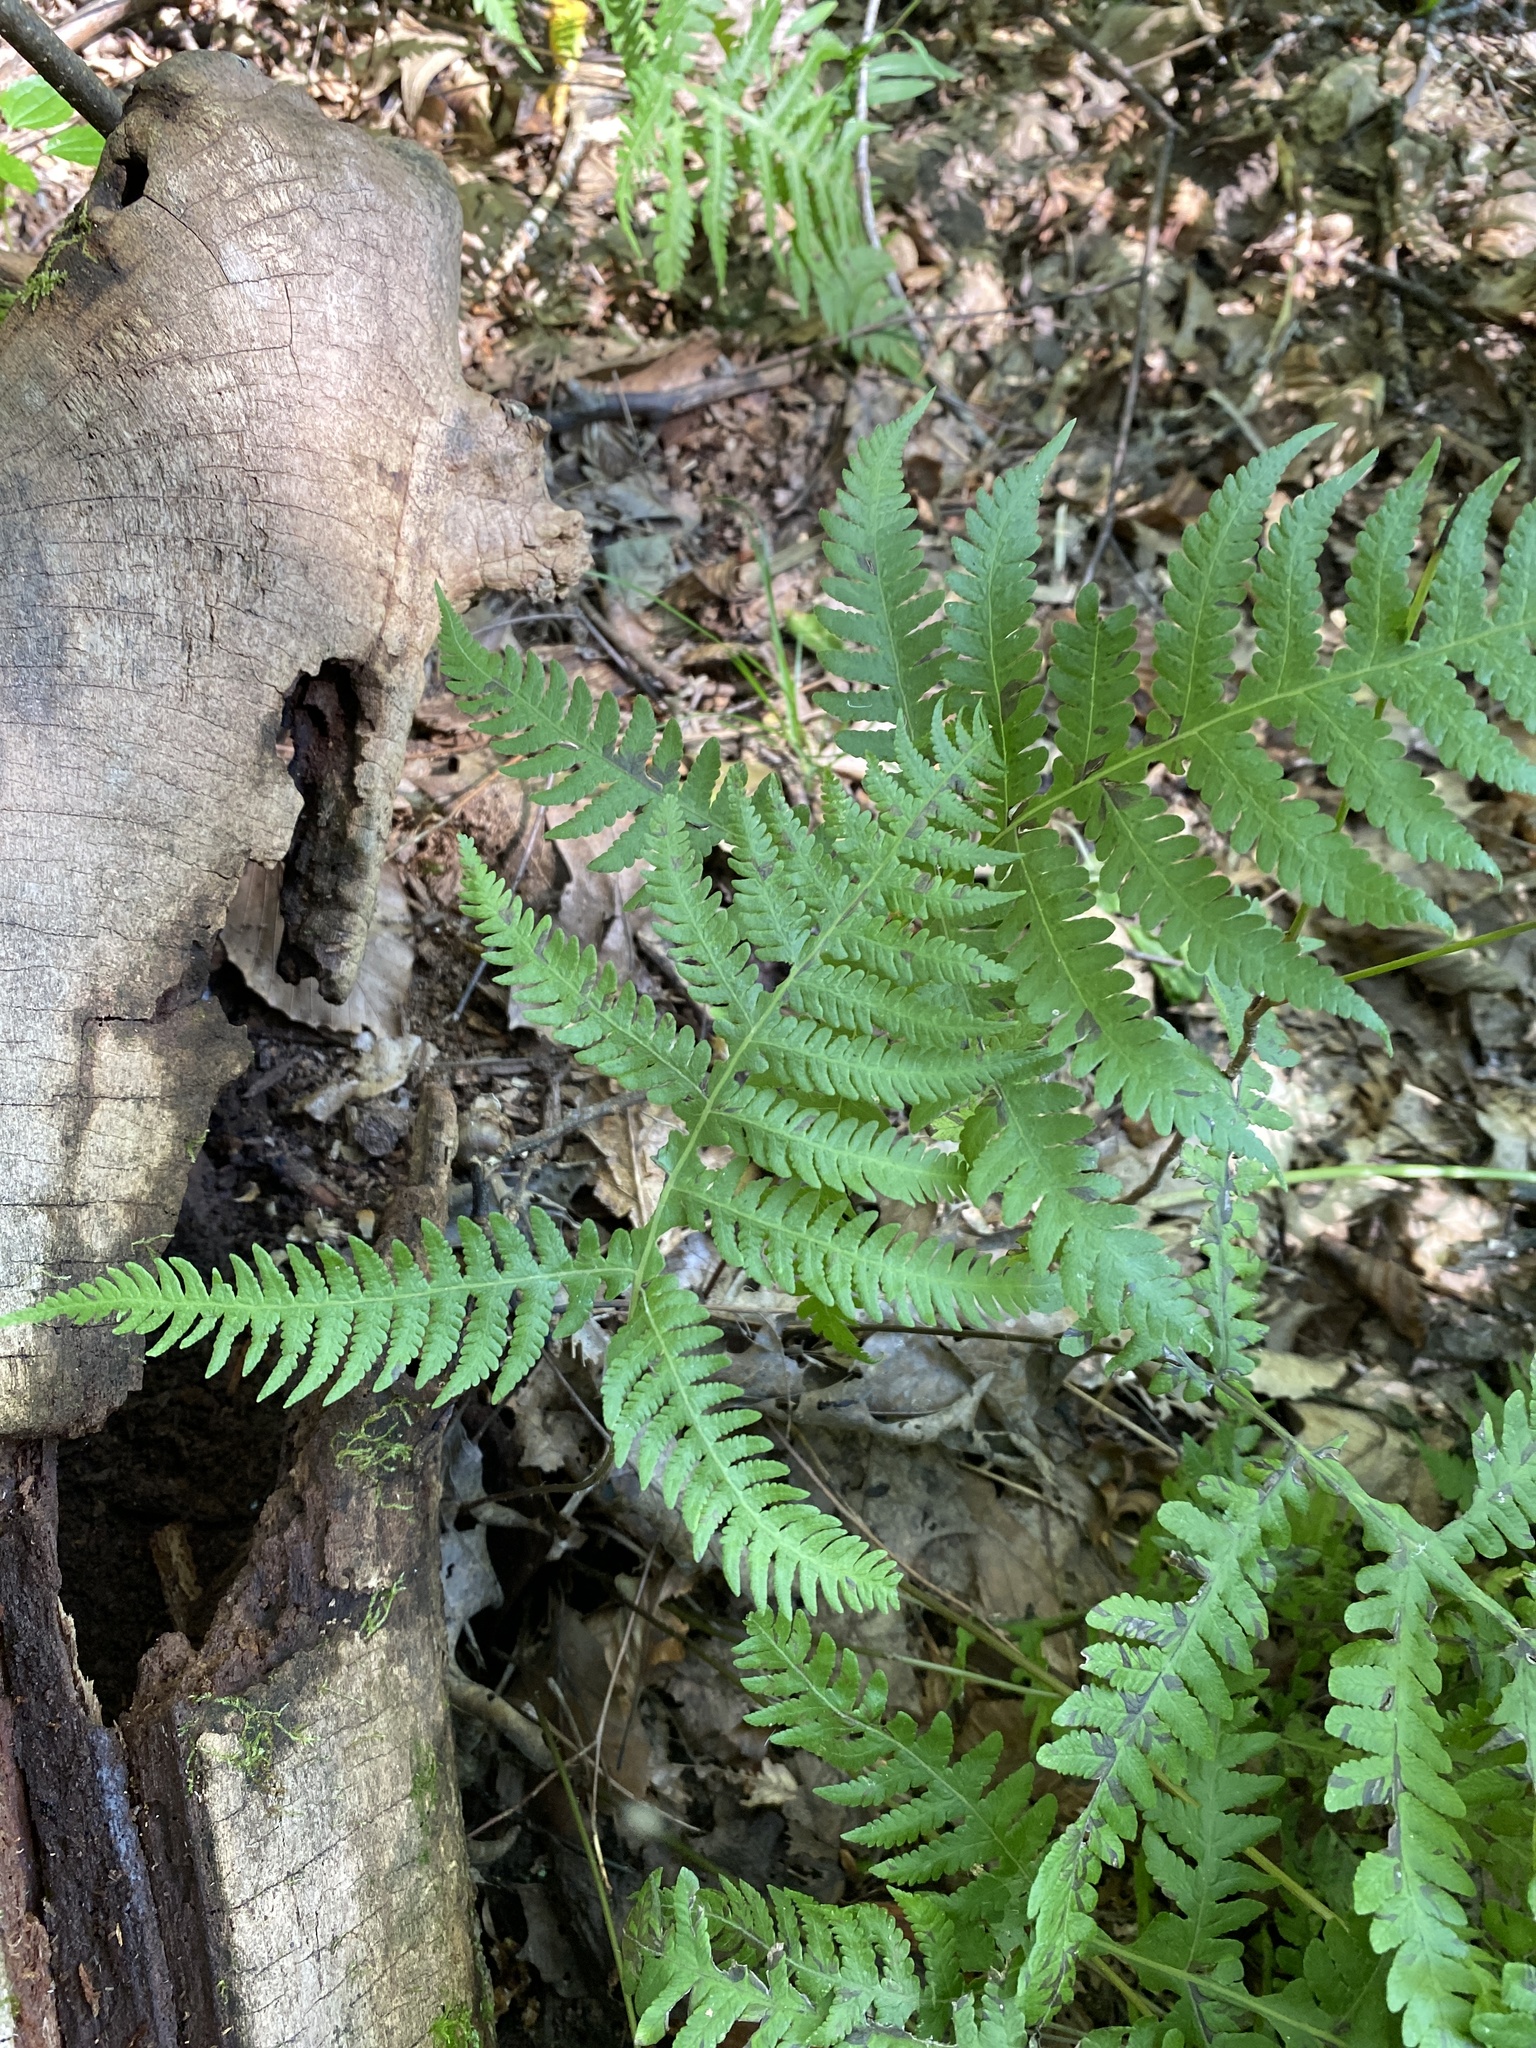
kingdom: Plantae
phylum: Tracheophyta
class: Polypodiopsida
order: Polypodiales
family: Thelypteridaceae
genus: Phegopteris
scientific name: Phegopteris hexagonoptera
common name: Broad beech fern
